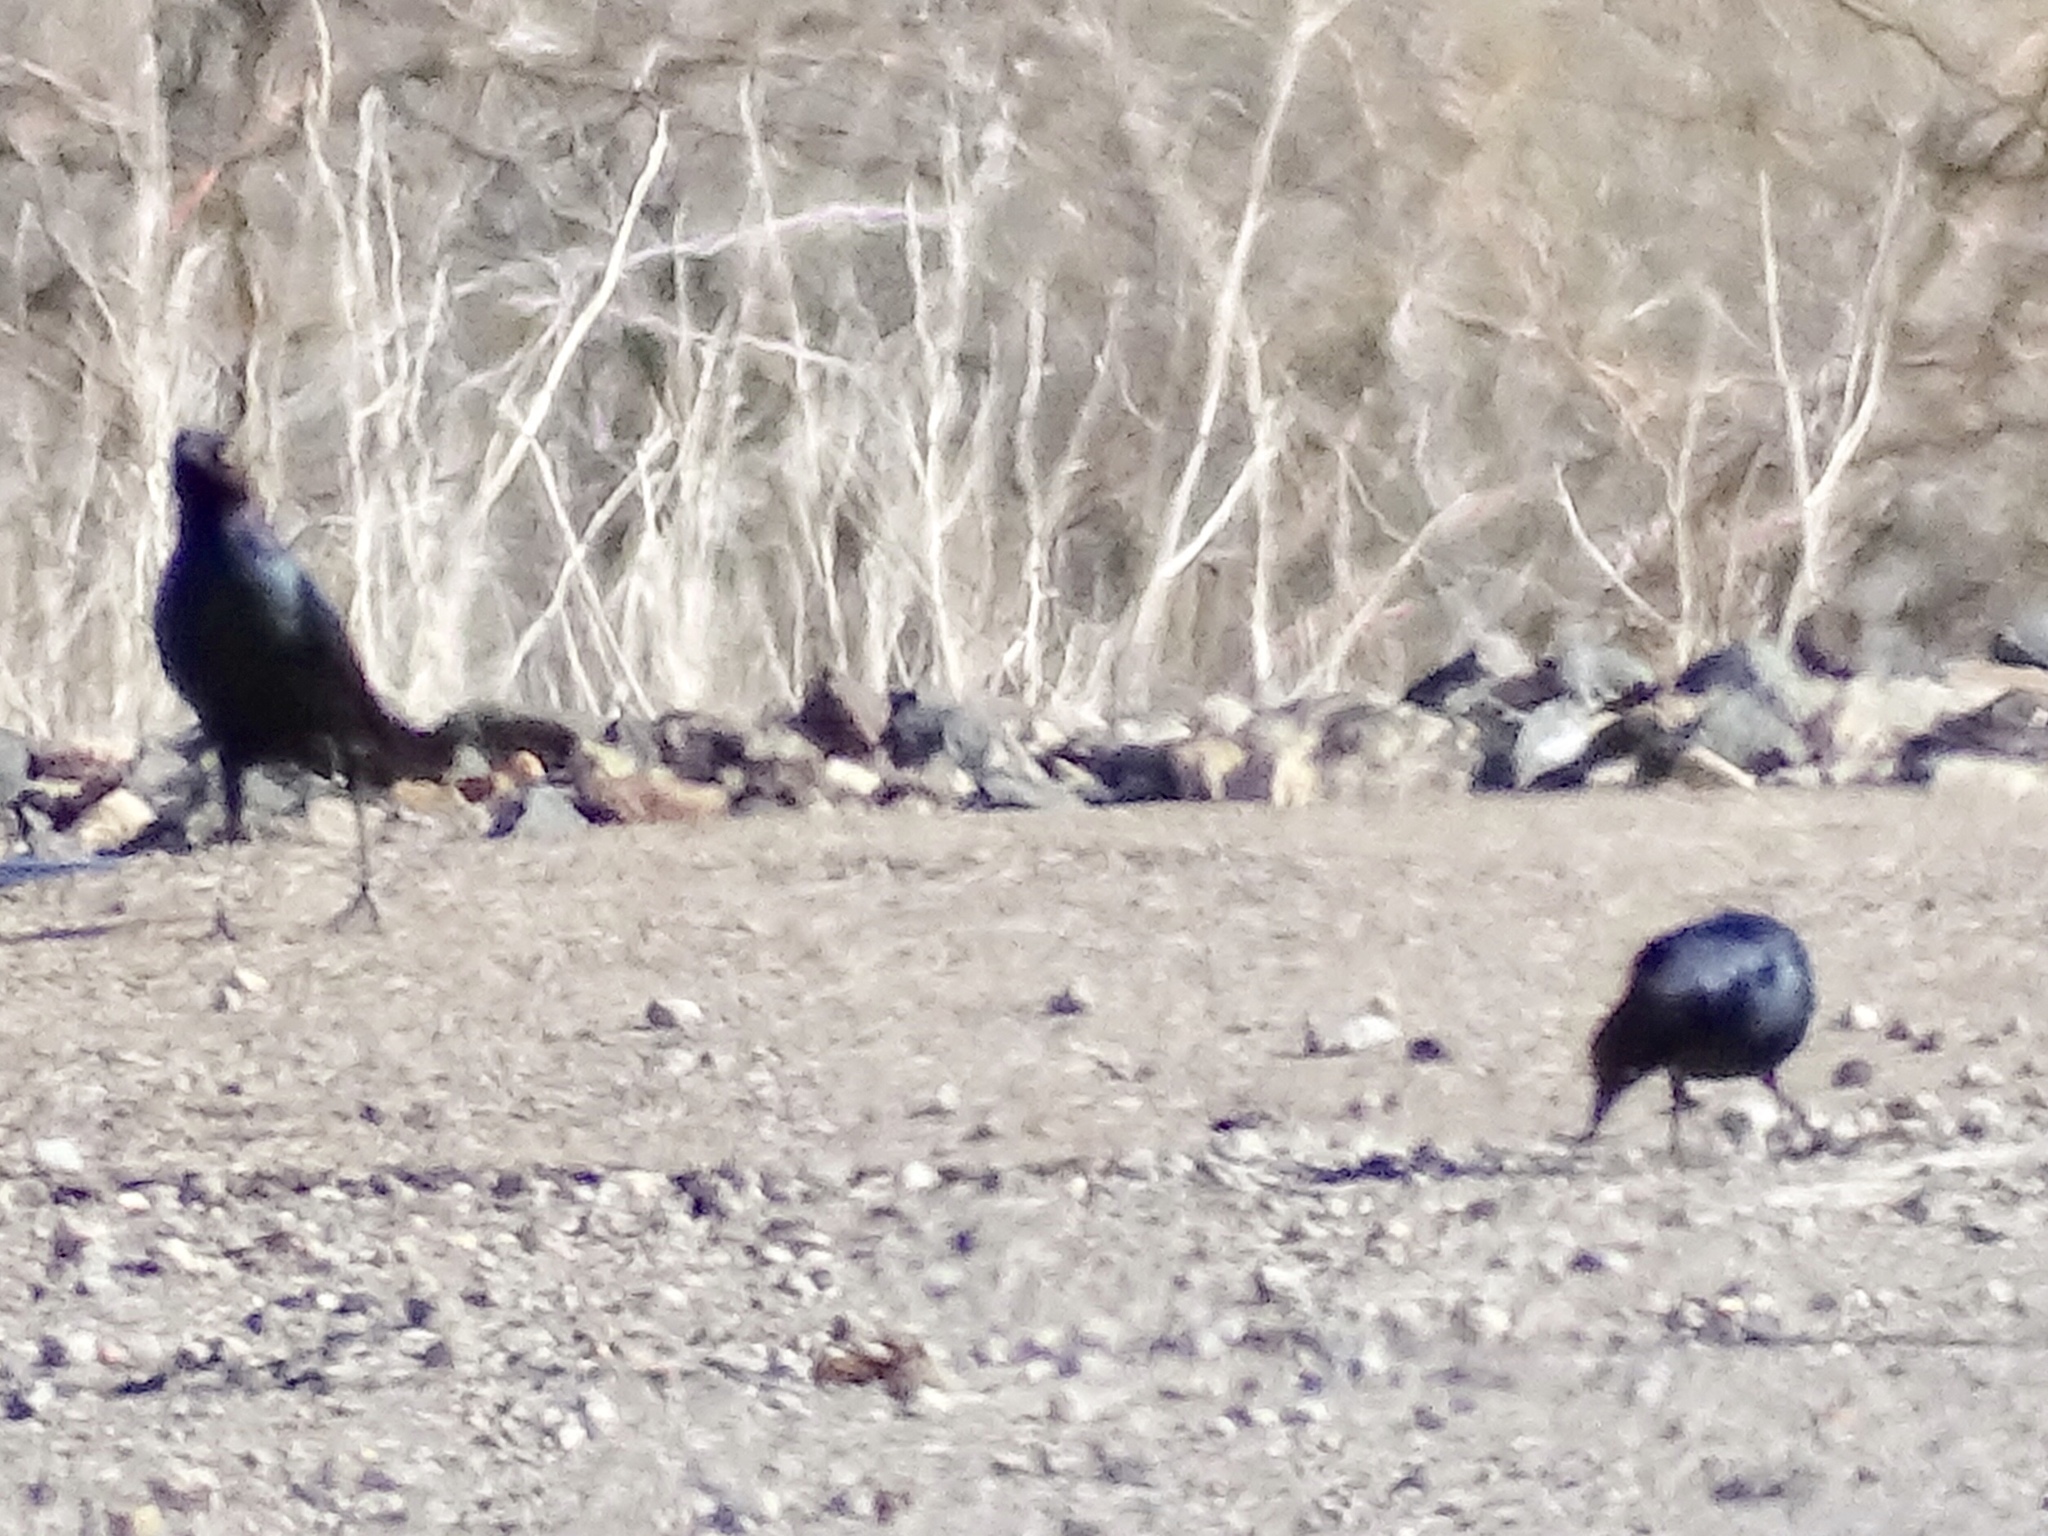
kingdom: Animalia
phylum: Chordata
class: Aves
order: Passeriformes
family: Icteridae
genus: Euphagus
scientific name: Euphagus cyanocephalus
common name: Brewer's blackbird
